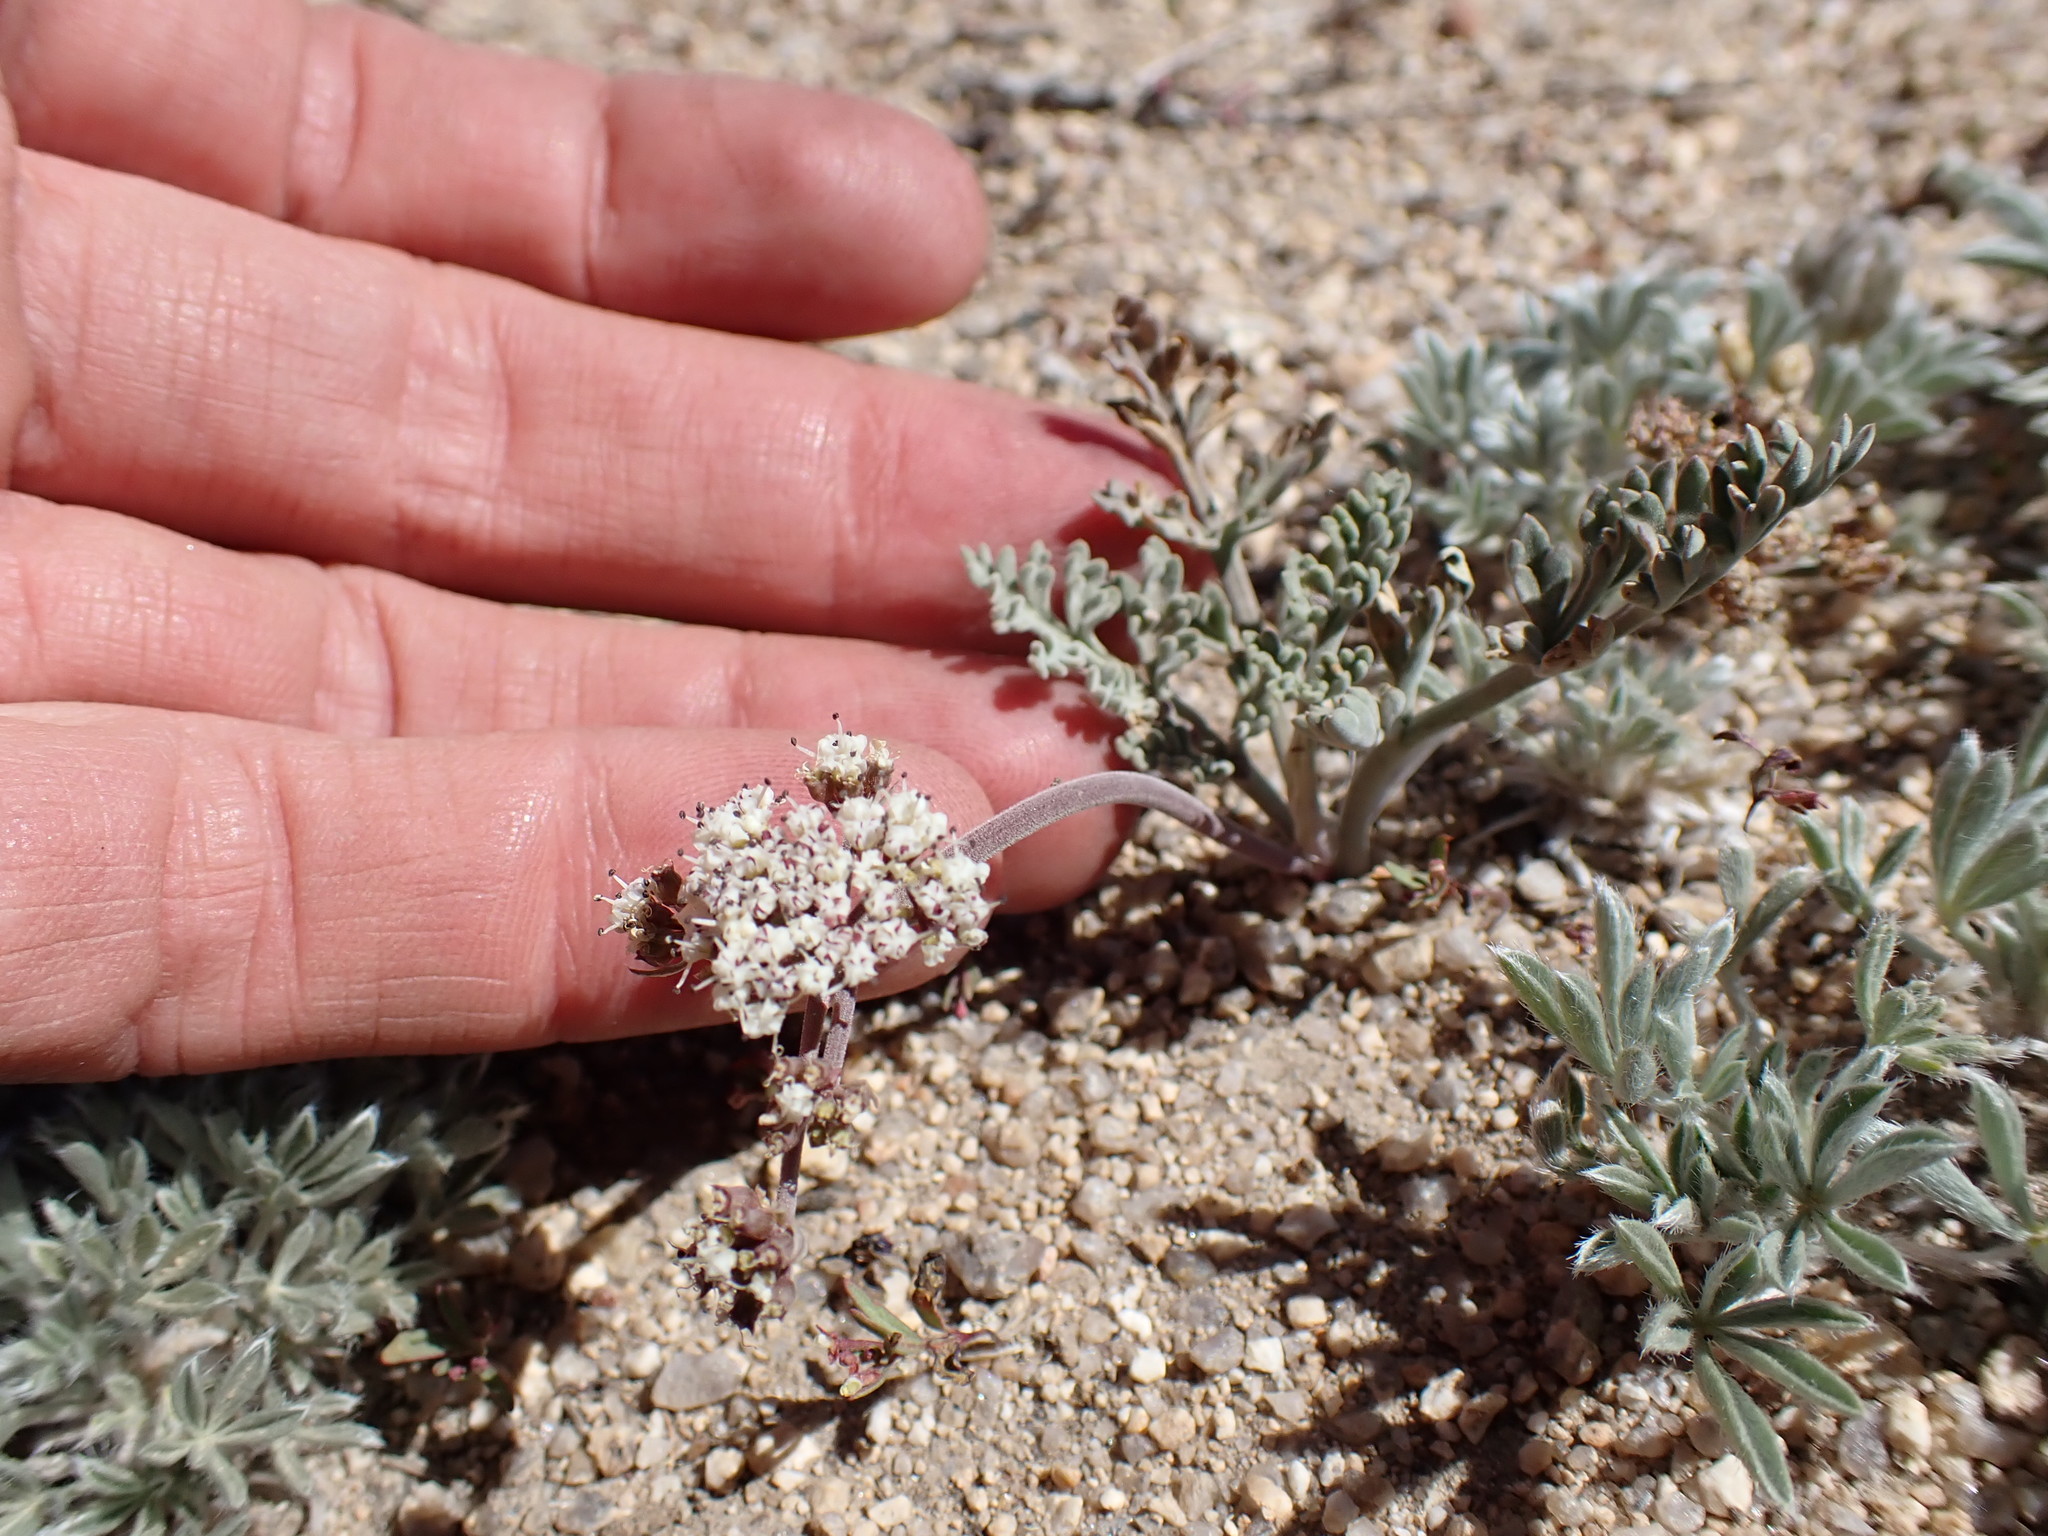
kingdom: Plantae
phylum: Tracheophyta
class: Magnoliopsida
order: Apiales
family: Apiaceae
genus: Lomatium
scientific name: Lomatium nevadense
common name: Nevada lomatium
